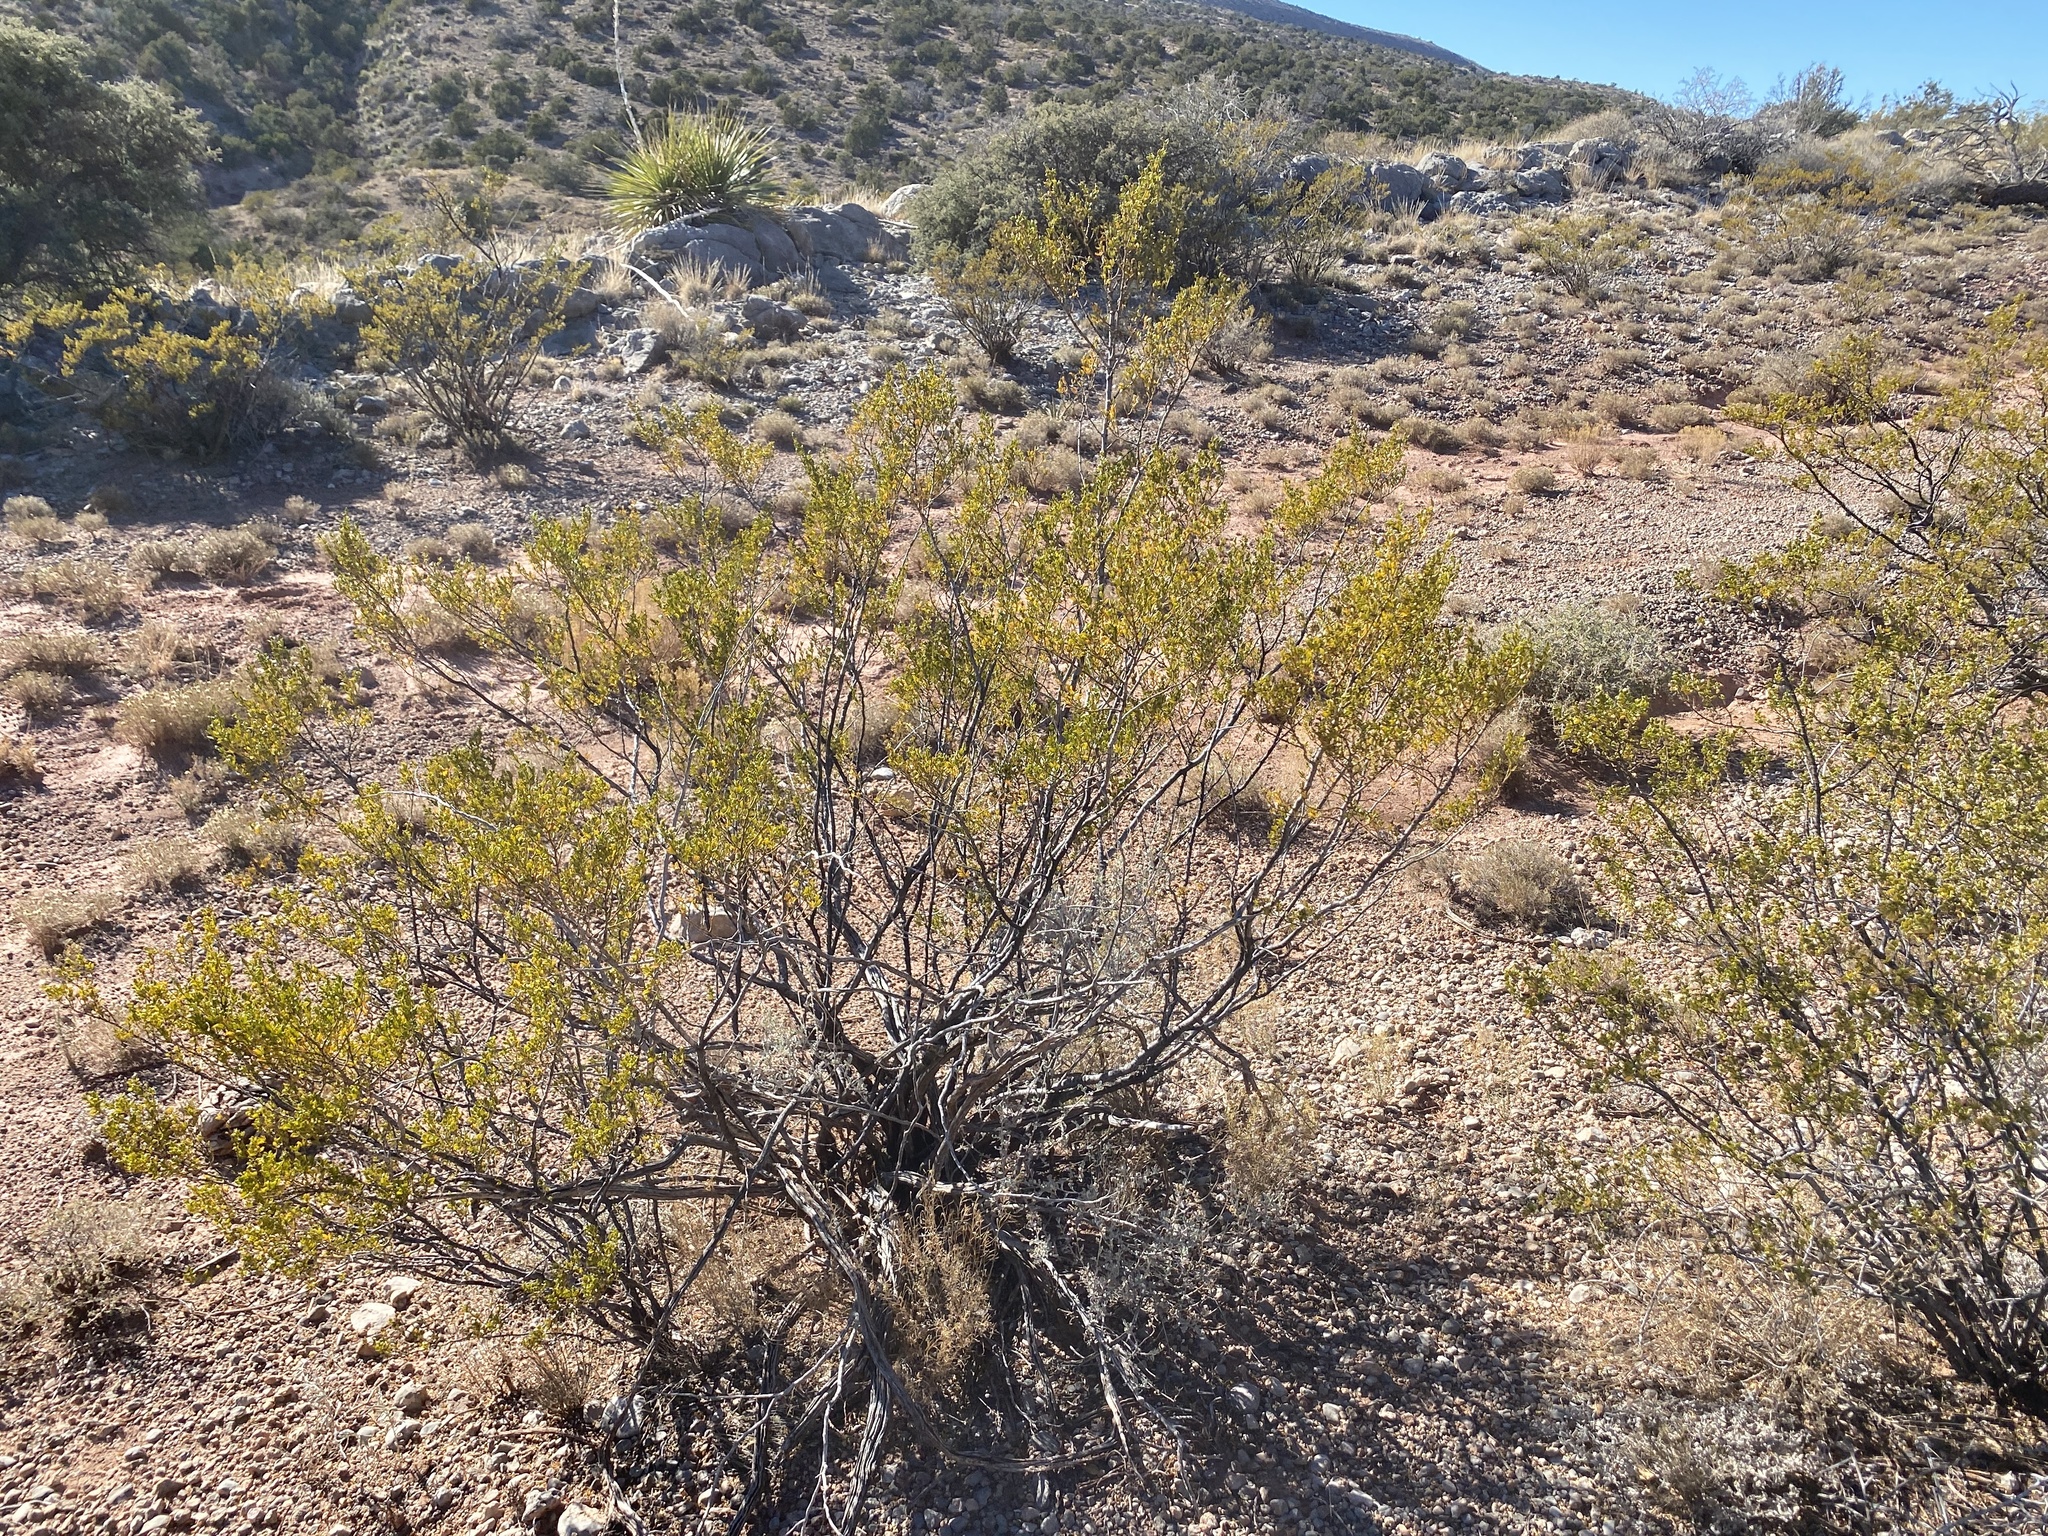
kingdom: Plantae
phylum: Tracheophyta
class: Magnoliopsida
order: Zygophyllales
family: Zygophyllaceae
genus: Larrea
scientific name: Larrea tridentata
